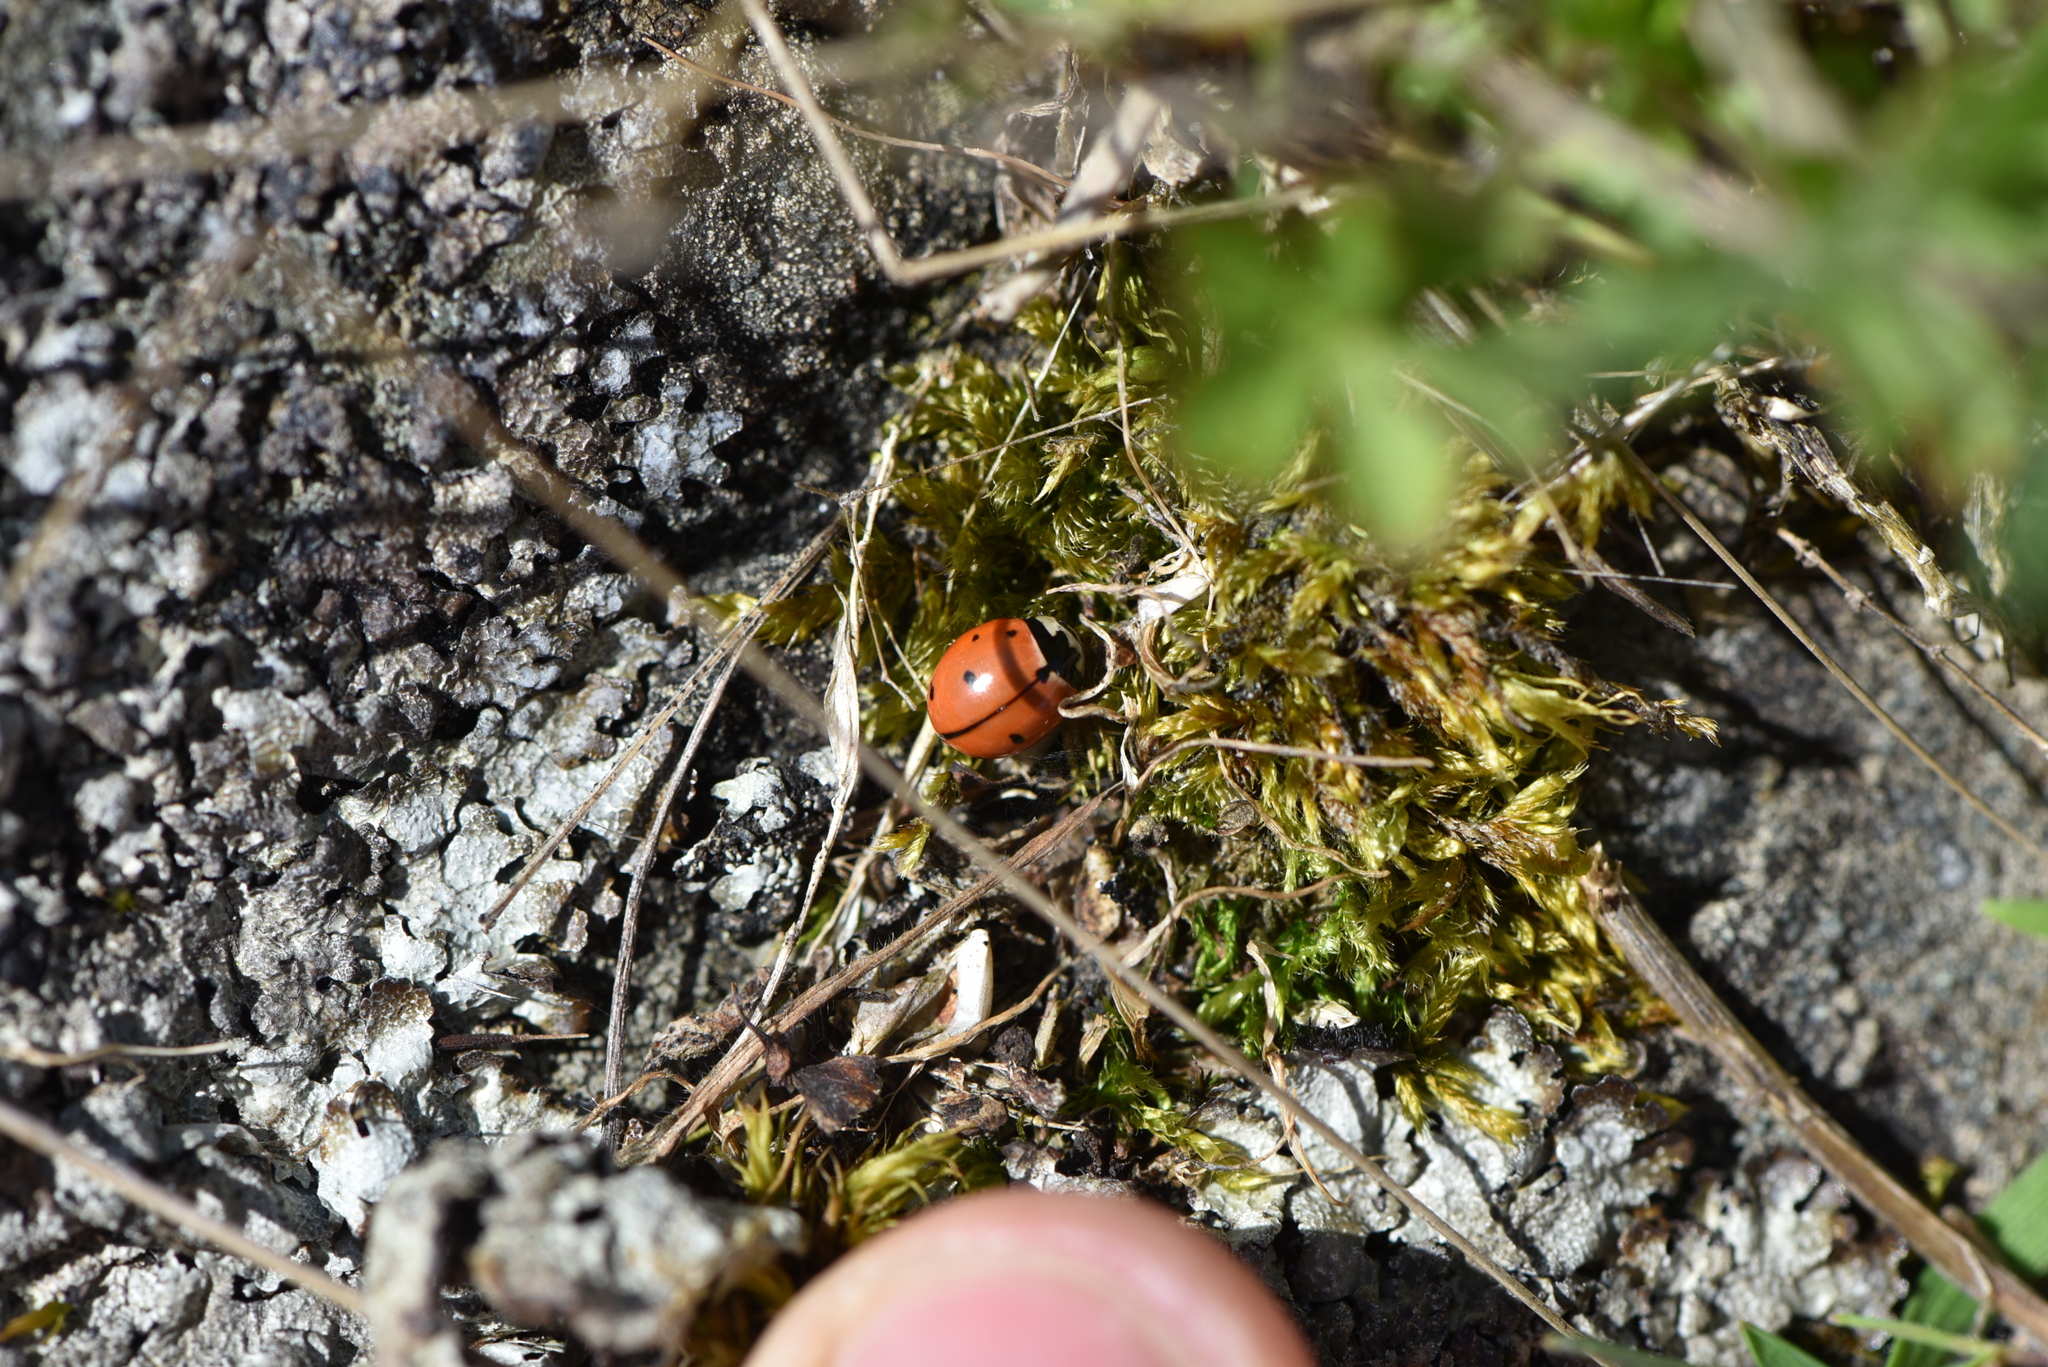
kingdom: Animalia
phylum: Arthropoda
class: Insecta
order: Coleoptera
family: Coccinellidae
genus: Coccinella
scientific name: Coccinella novemnotata
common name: Nine-spotted lady beetle
